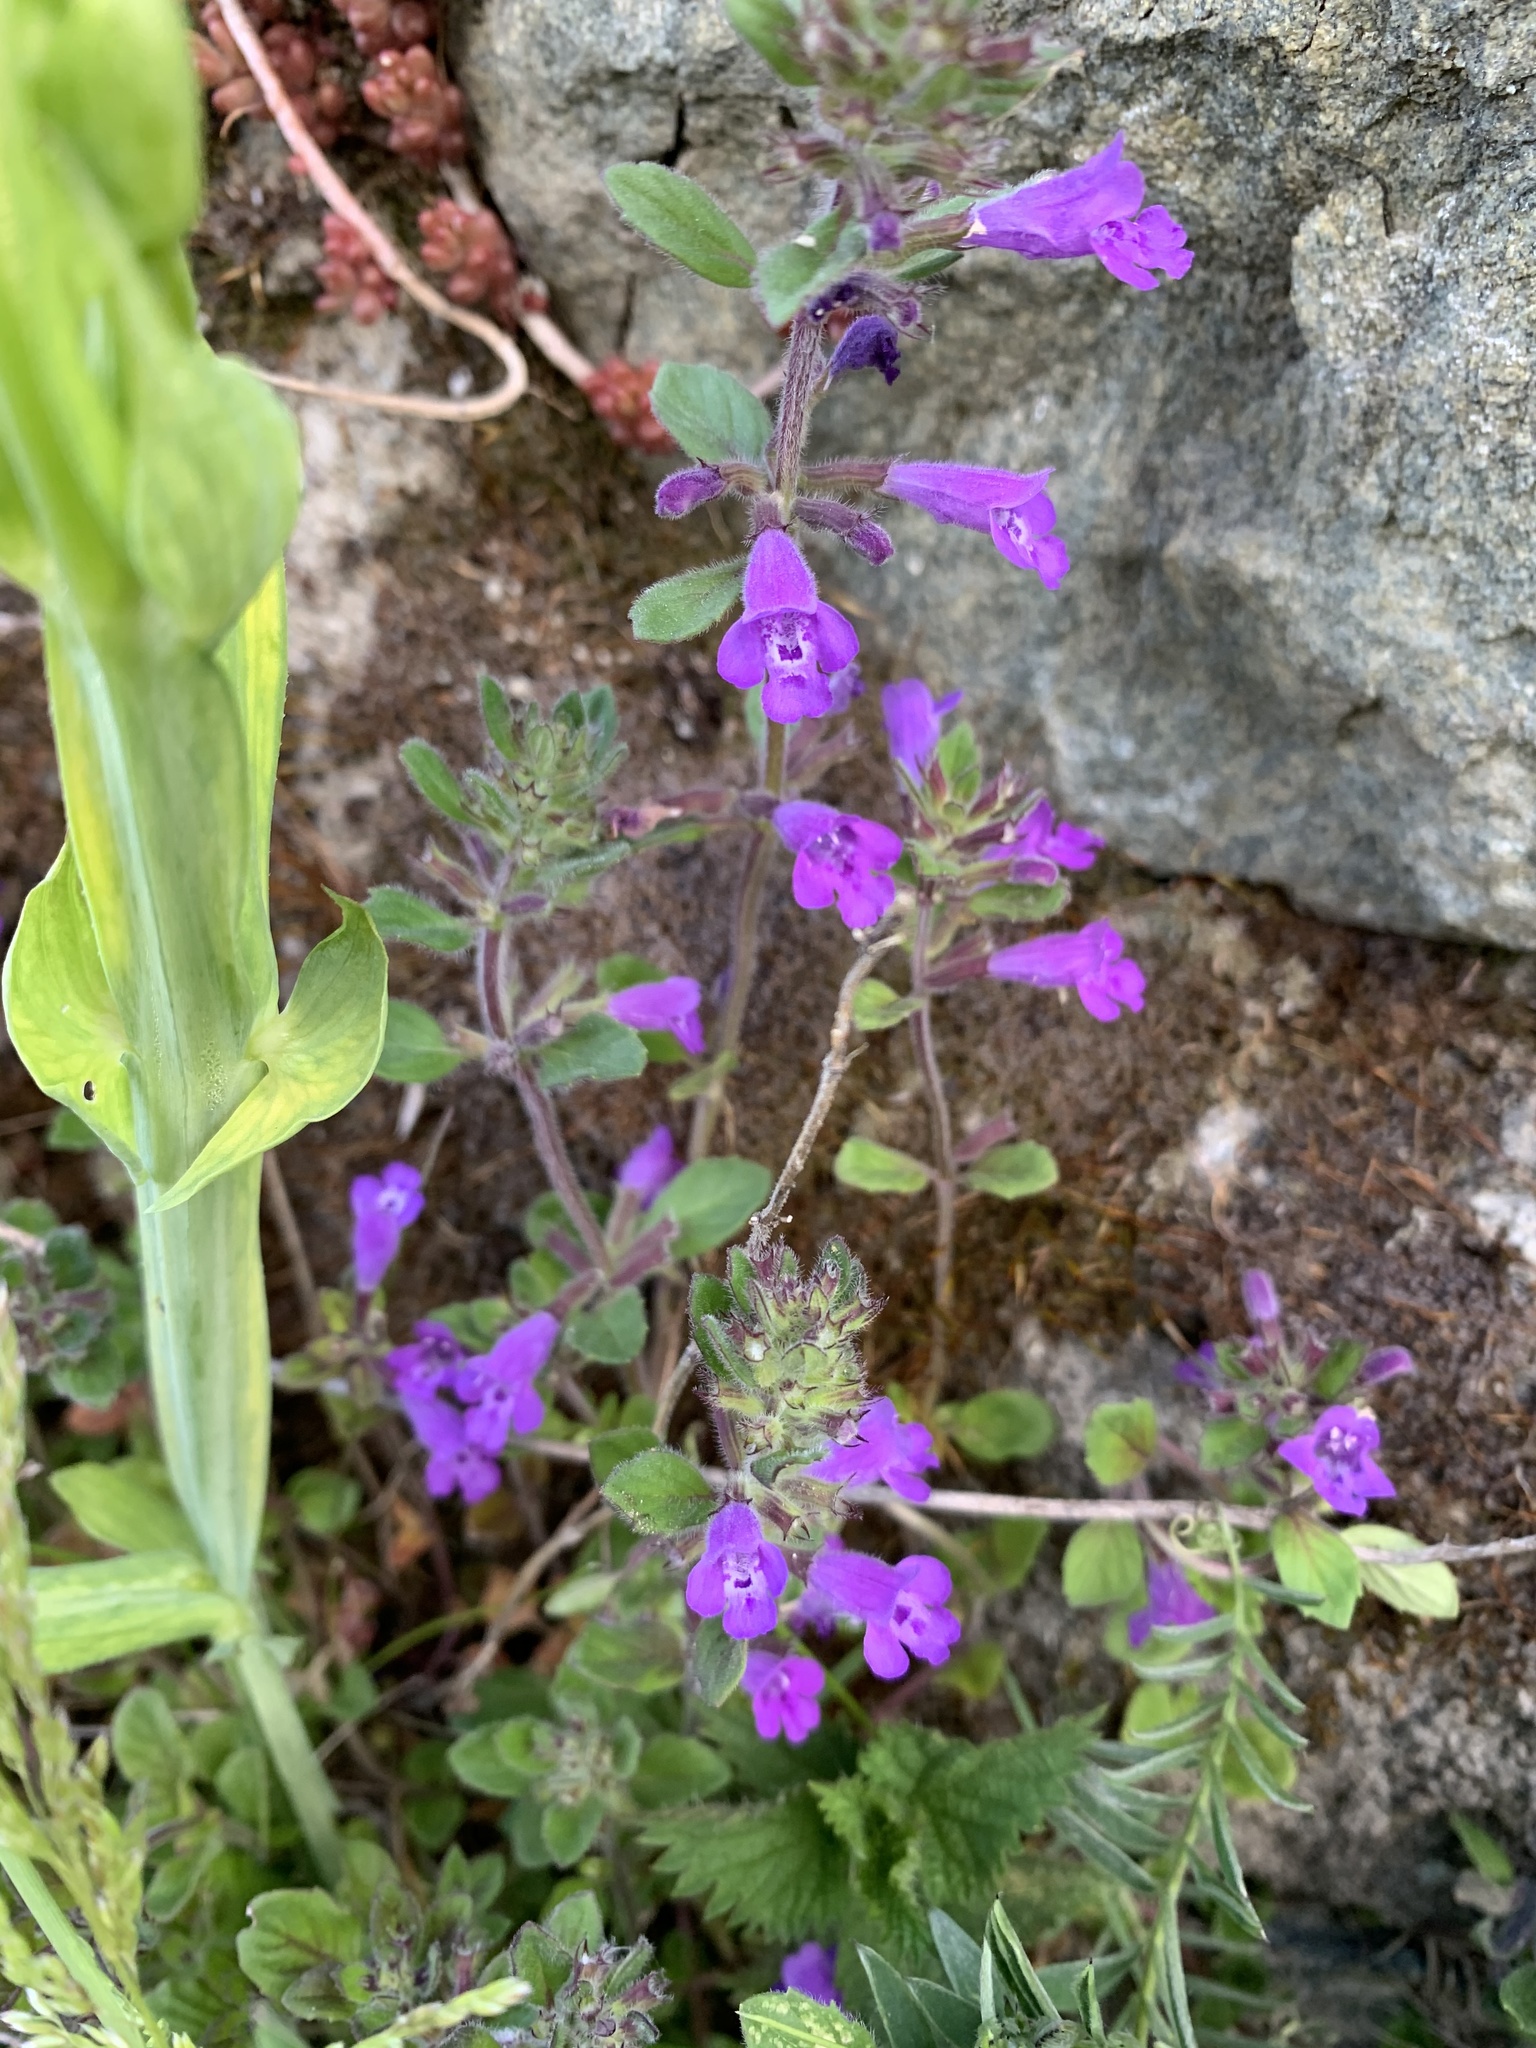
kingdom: Plantae
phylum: Tracheophyta
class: Magnoliopsida
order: Lamiales
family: Lamiaceae
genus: Clinopodium
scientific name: Clinopodium alpinum
